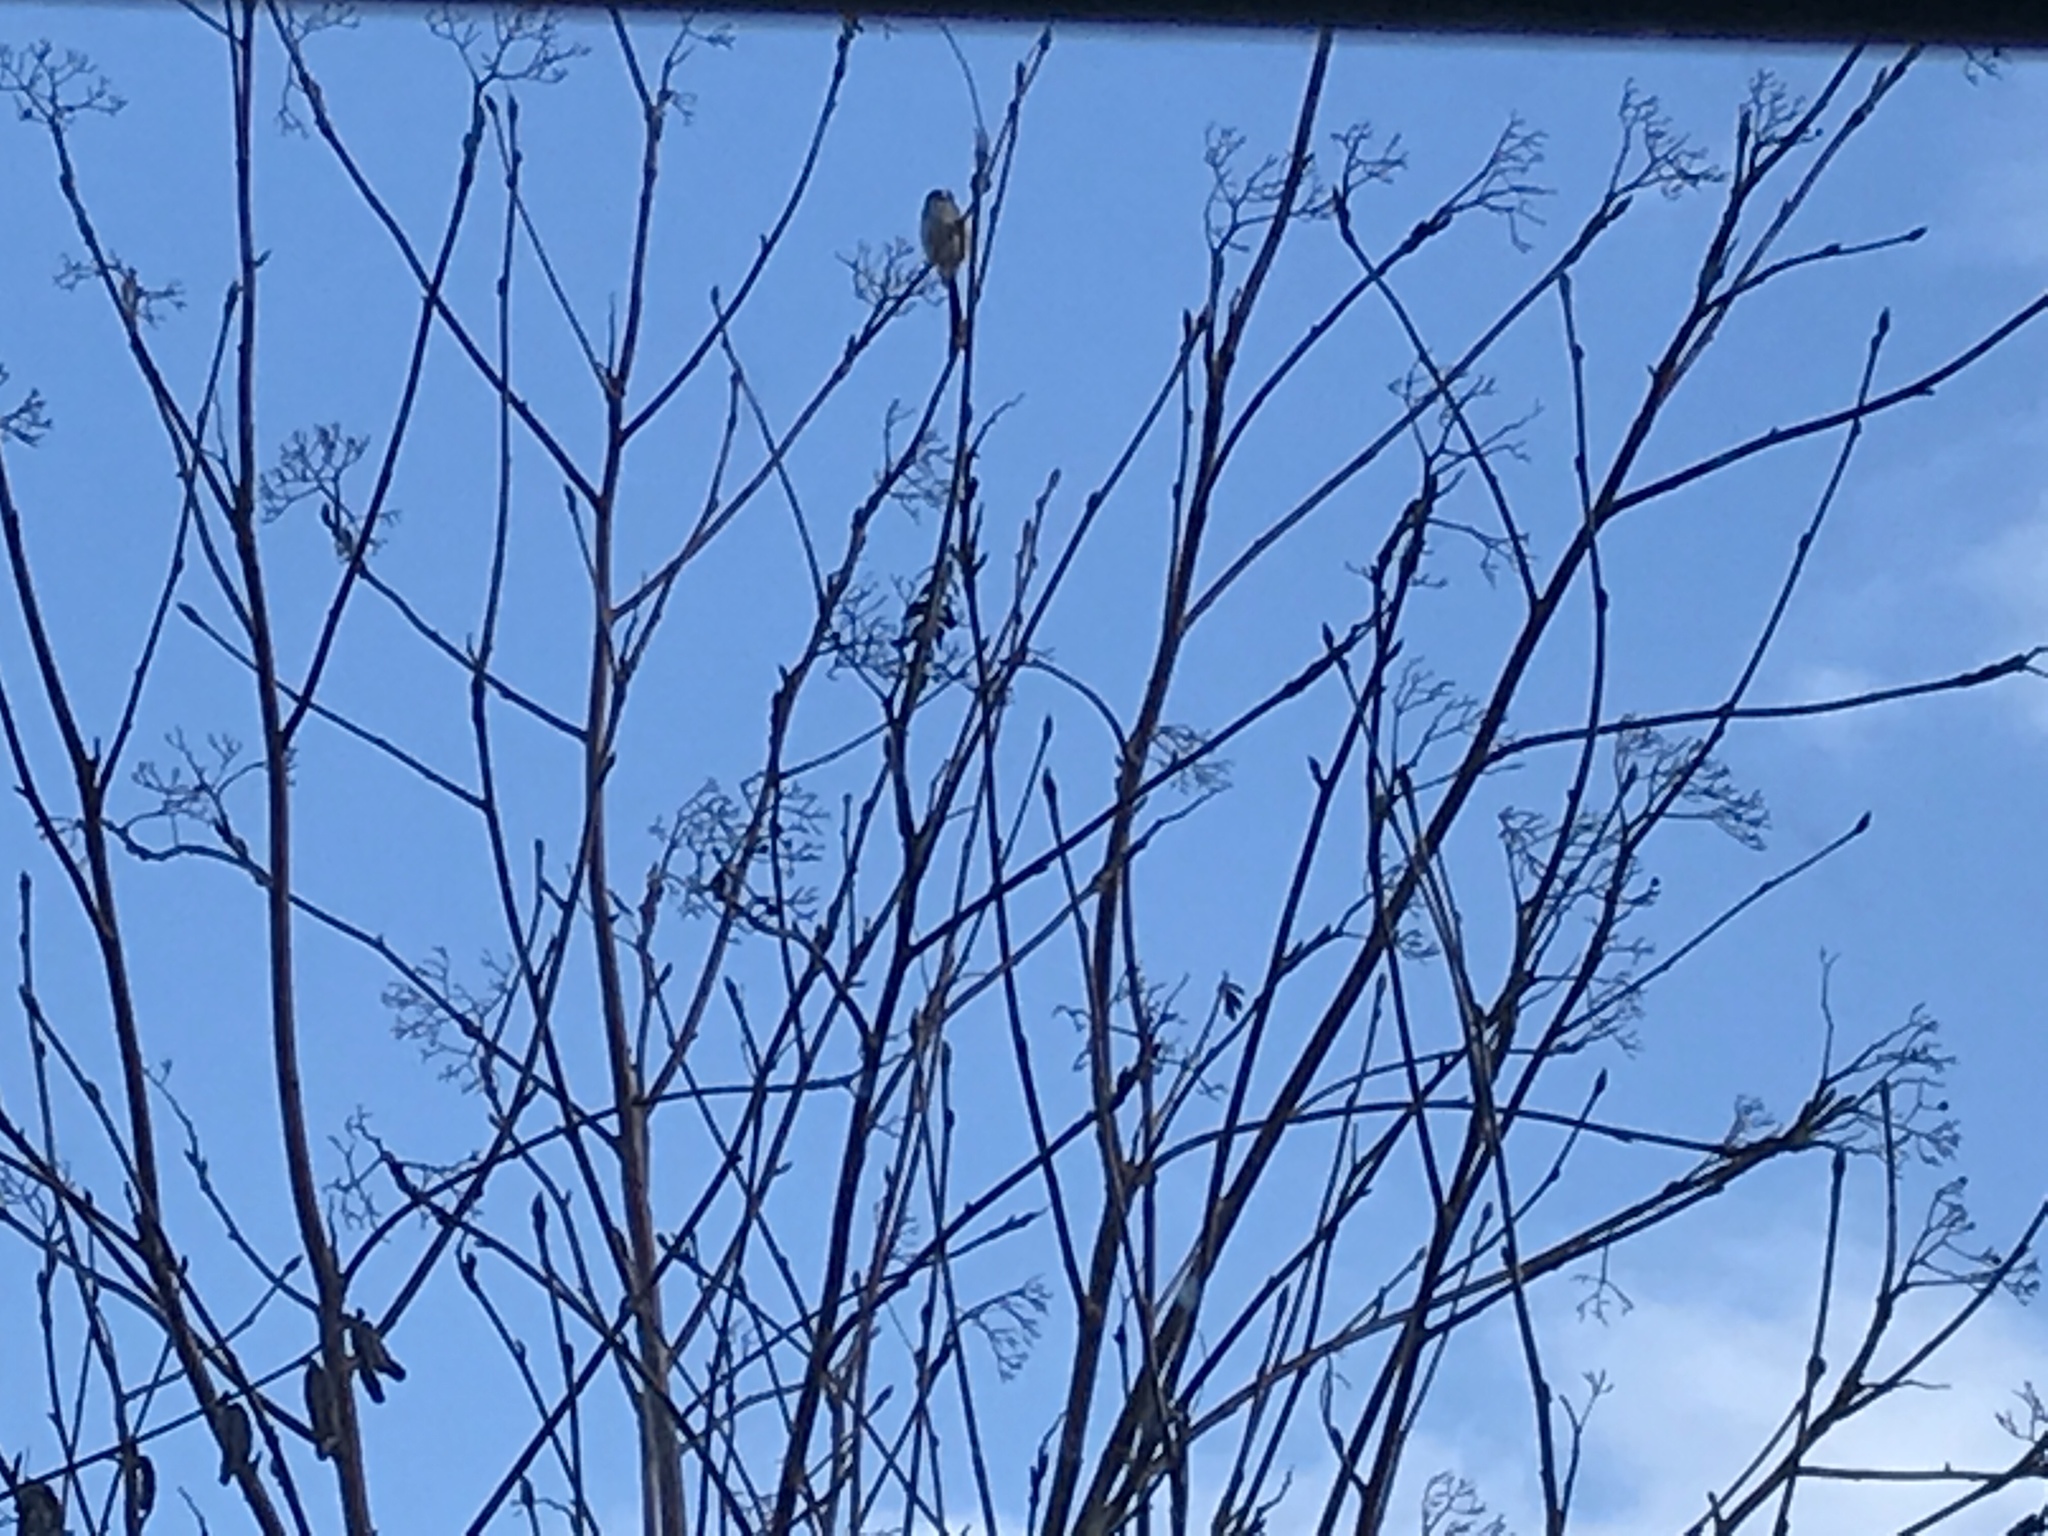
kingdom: Animalia
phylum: Chordata
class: Aves
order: Passeriformes
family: Aegithalidae
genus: Aegithalos
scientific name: Aegithalos caudatus
